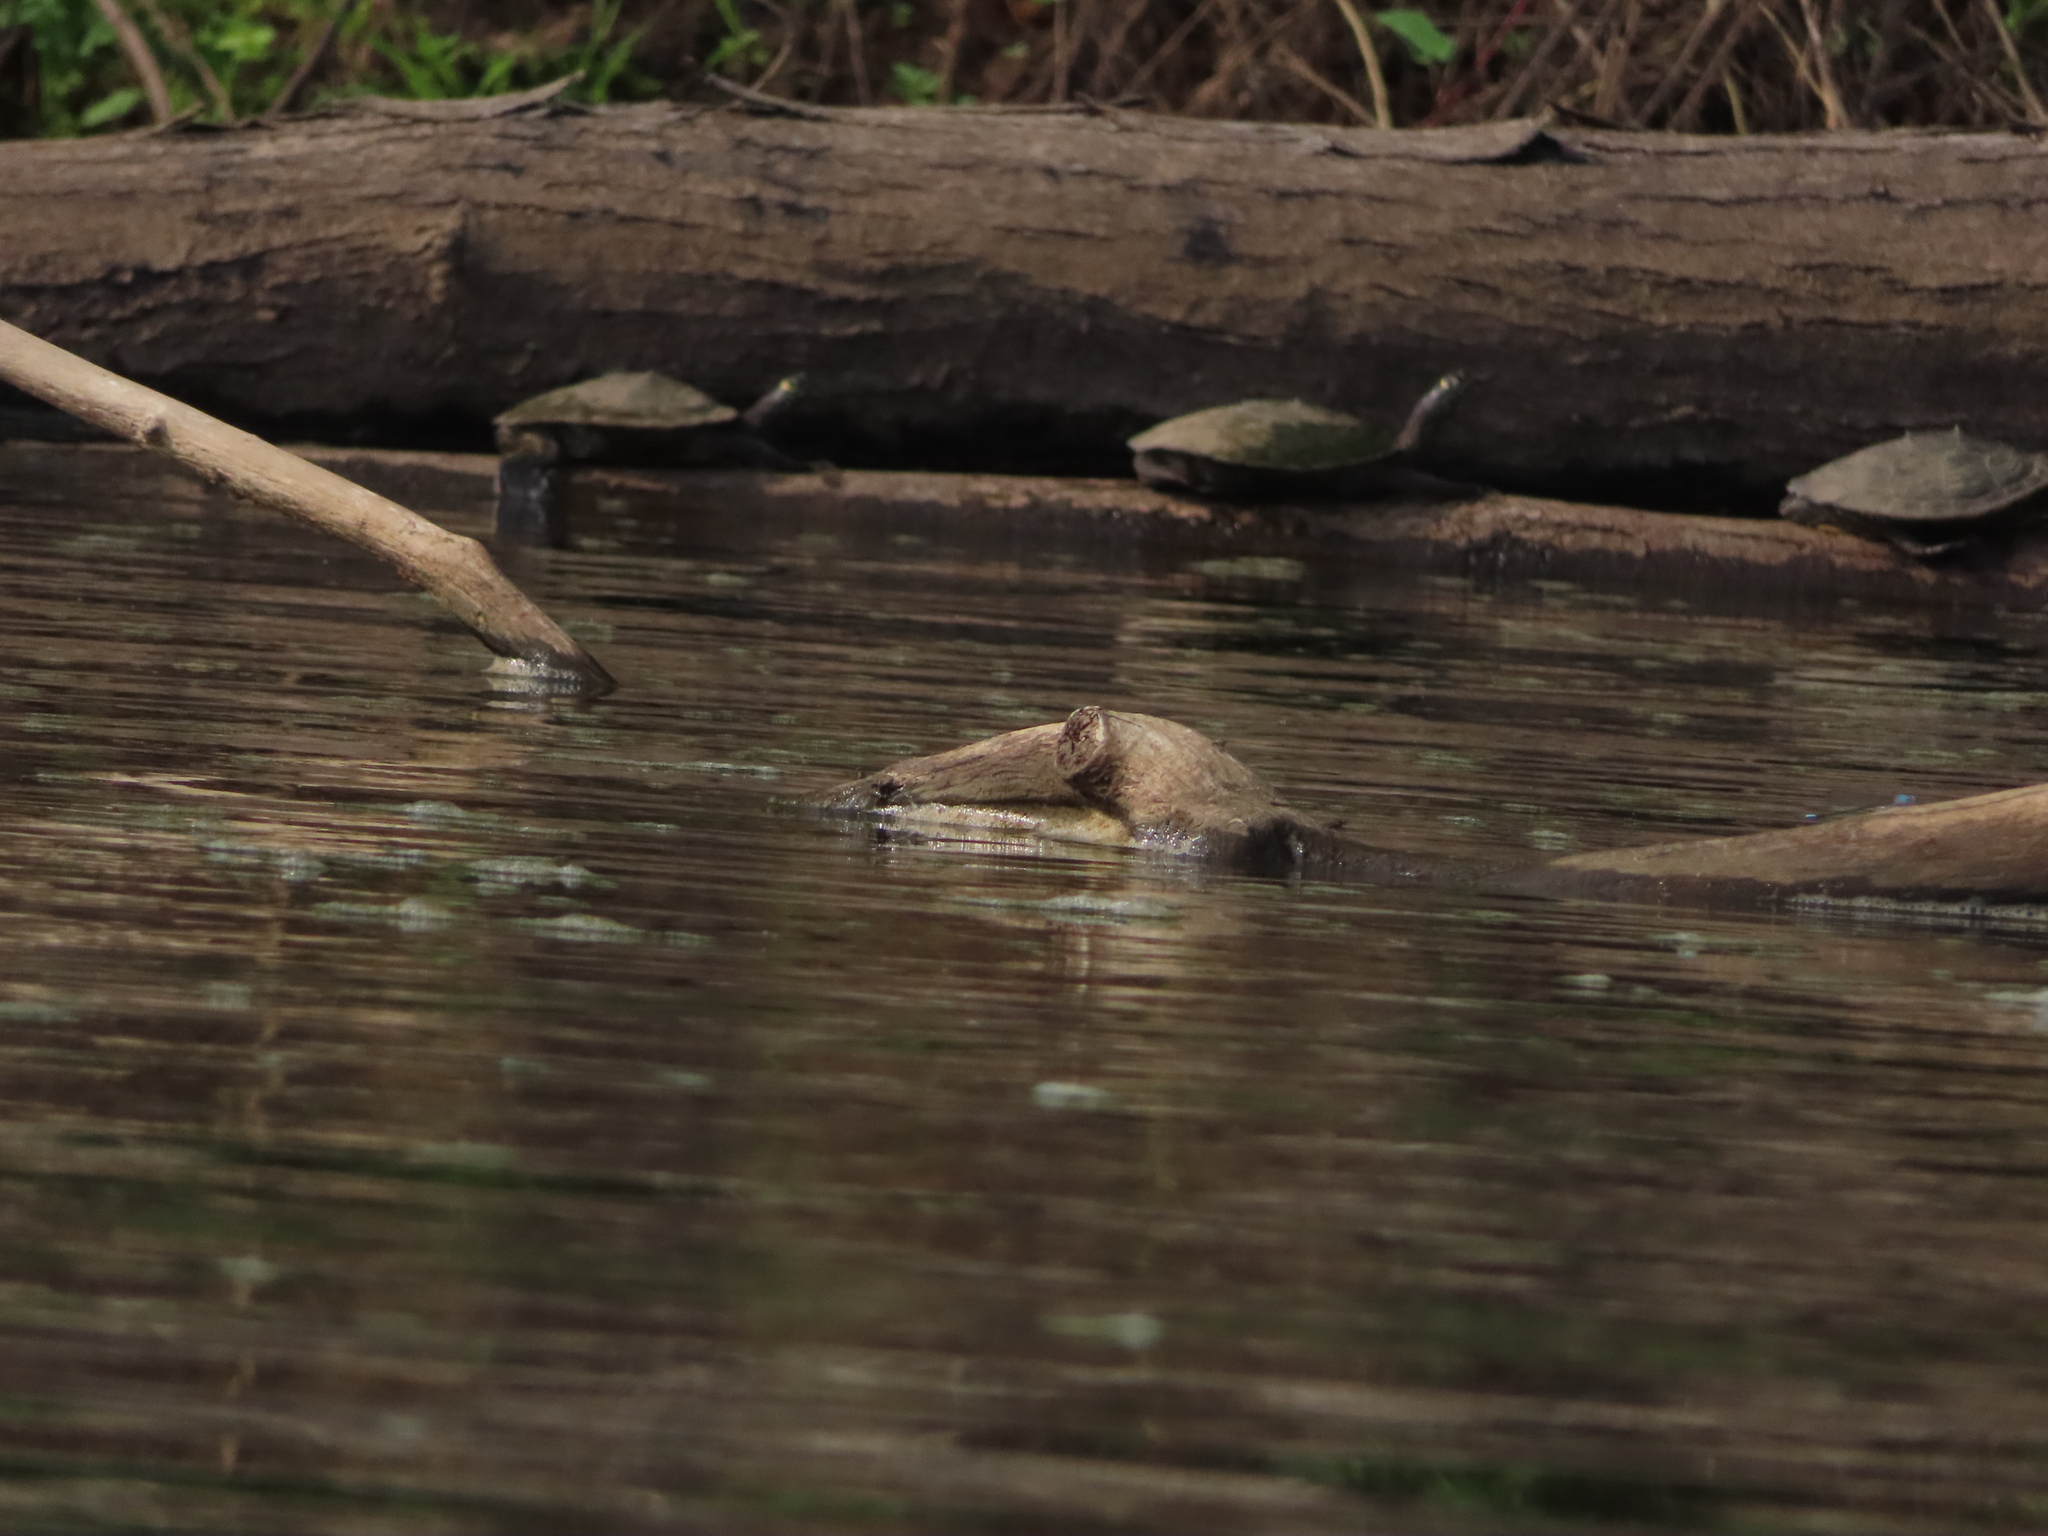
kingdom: Animalia
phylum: Chordata
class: Testudines
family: Emydidae
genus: Graptemys
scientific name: Graptemys ouachitensis
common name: Ouachita map turtle
